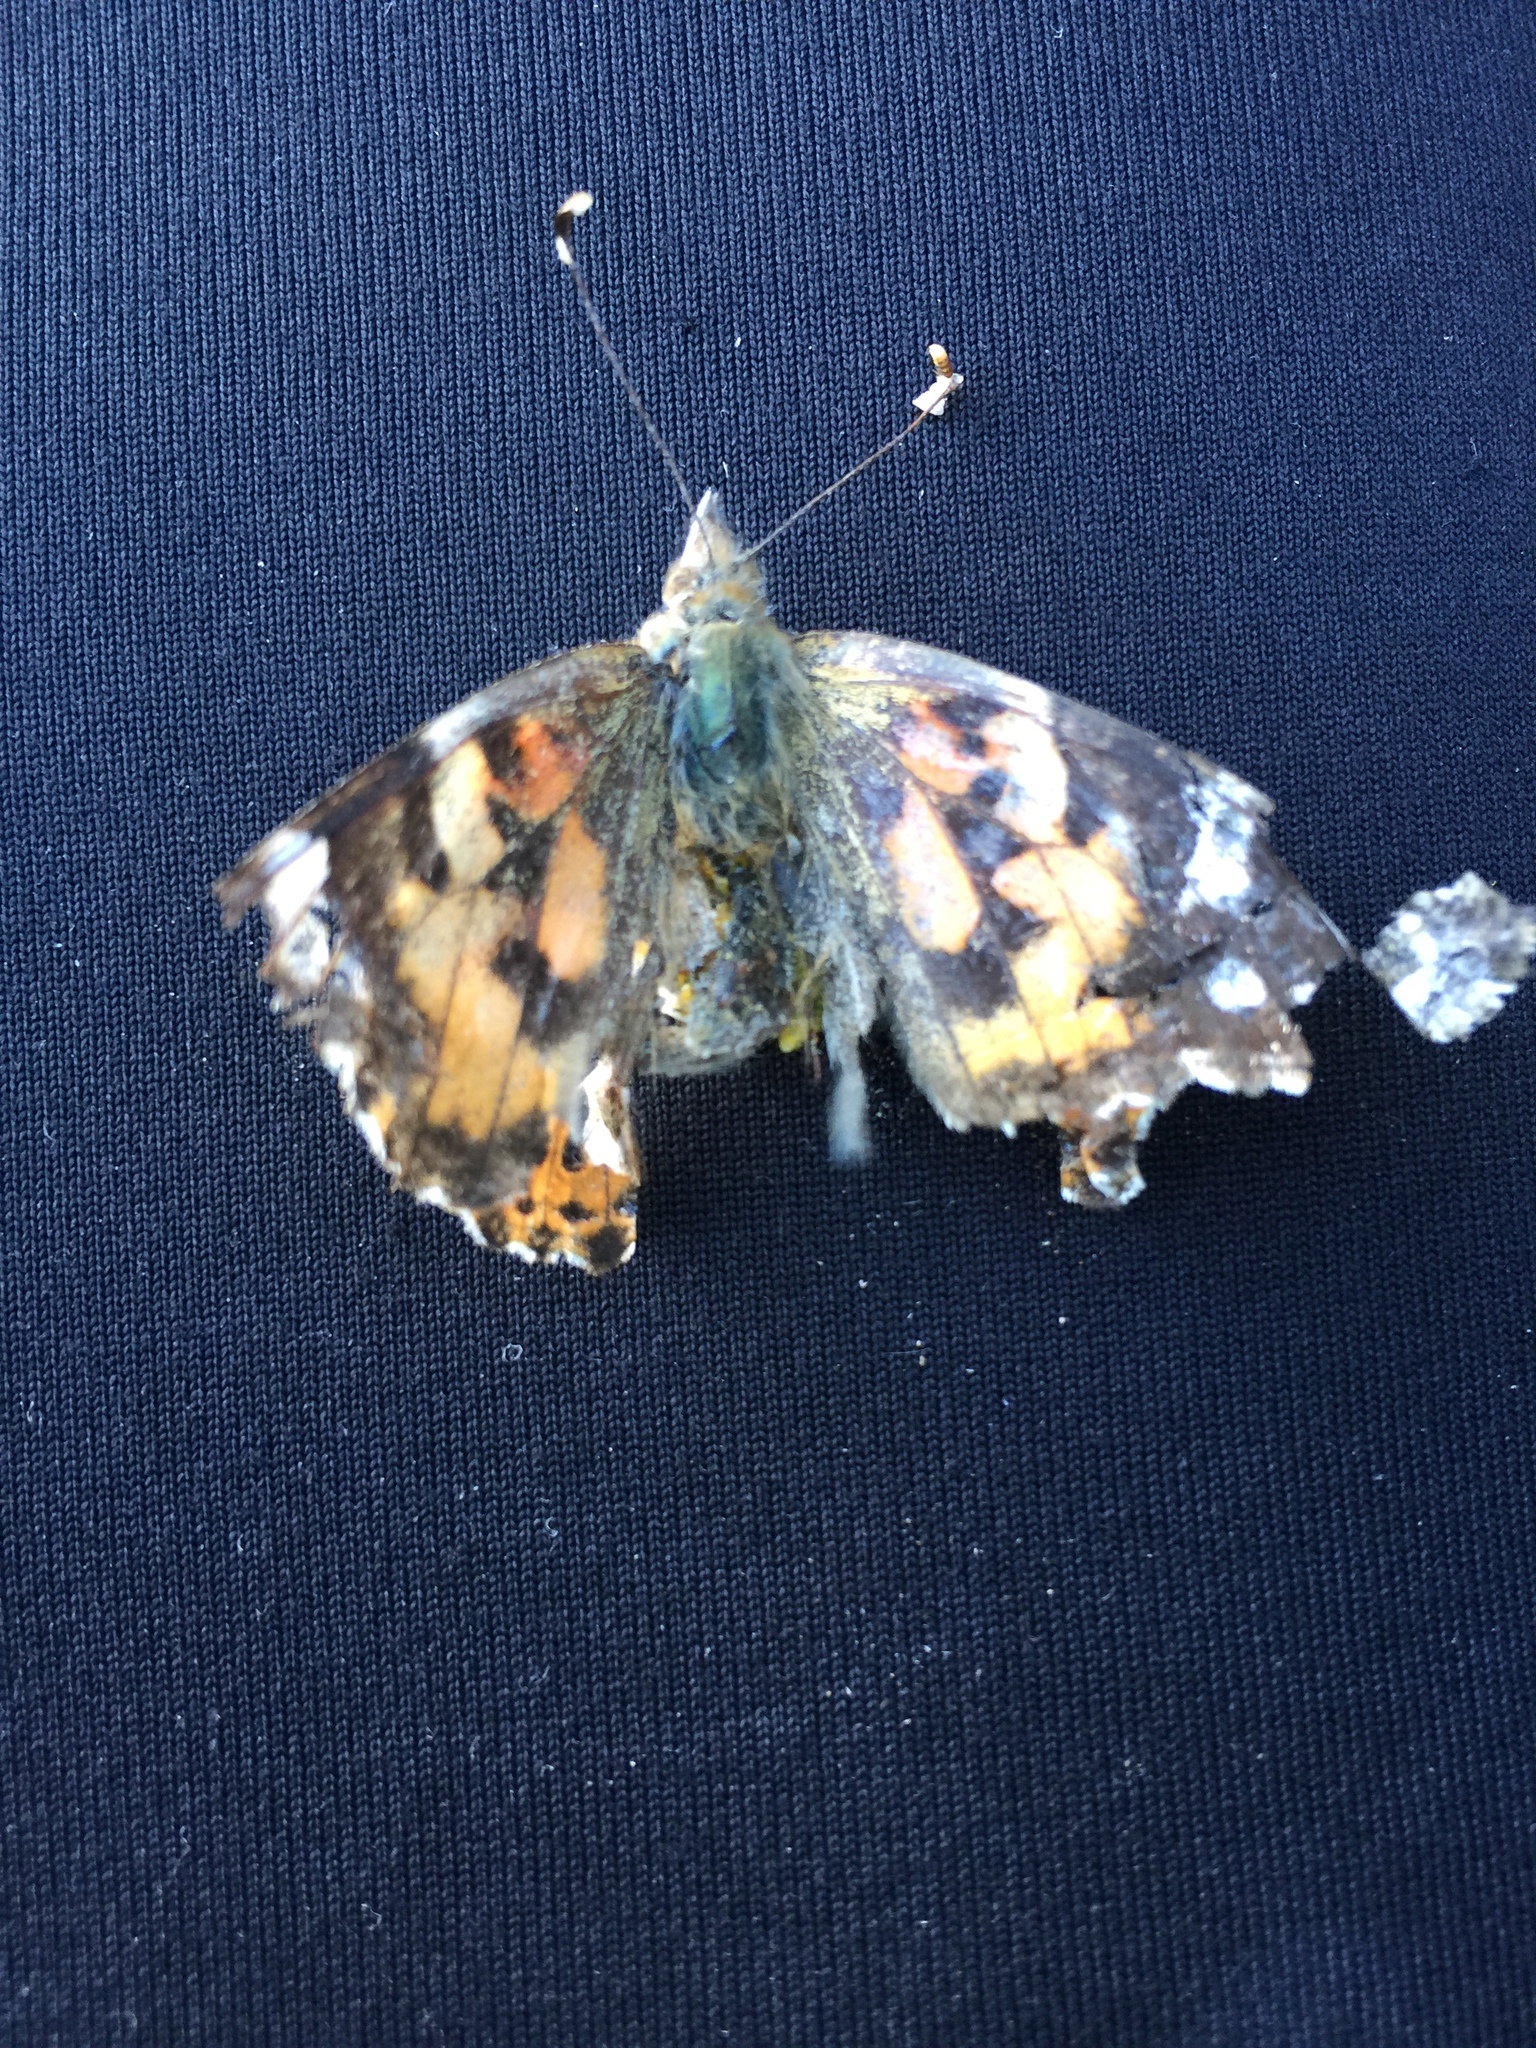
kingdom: Animalia
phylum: Arthropoda
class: Insecta
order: Lepidoptera
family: Nymphalidae
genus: Vanessa
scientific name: Vanessa cardui
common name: Painted lady
